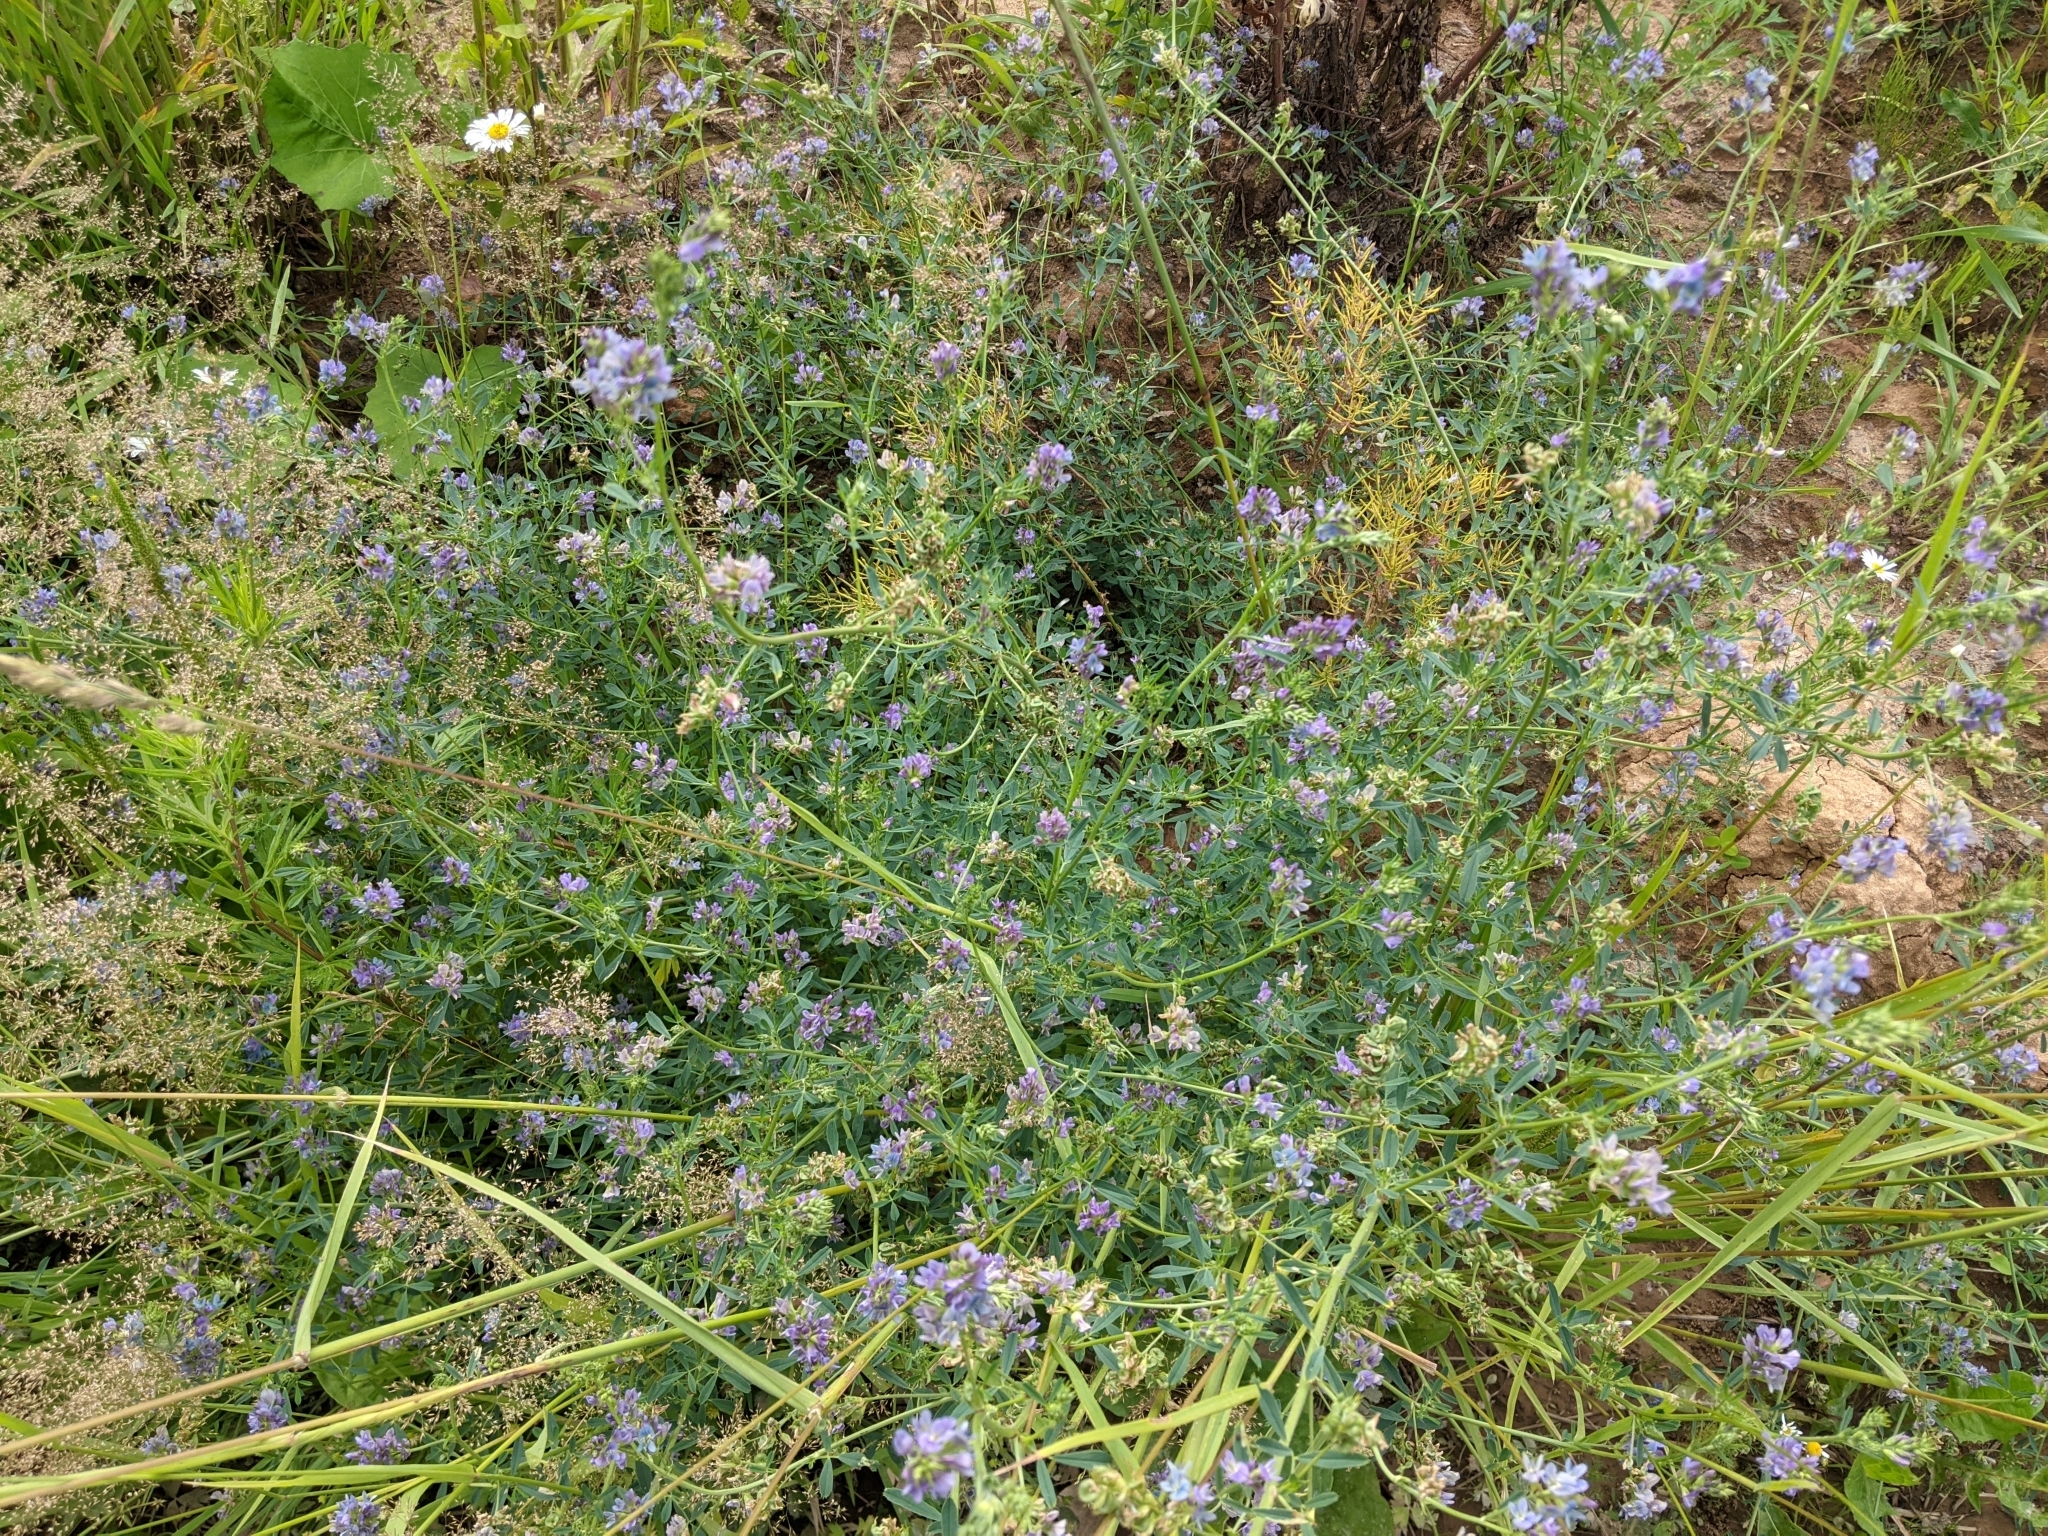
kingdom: Plantae
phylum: Tracheophyta
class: Magnoliopsida
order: Fabales
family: Fabaceae
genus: Medicago
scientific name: Medicago varia
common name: Sand lucerne
